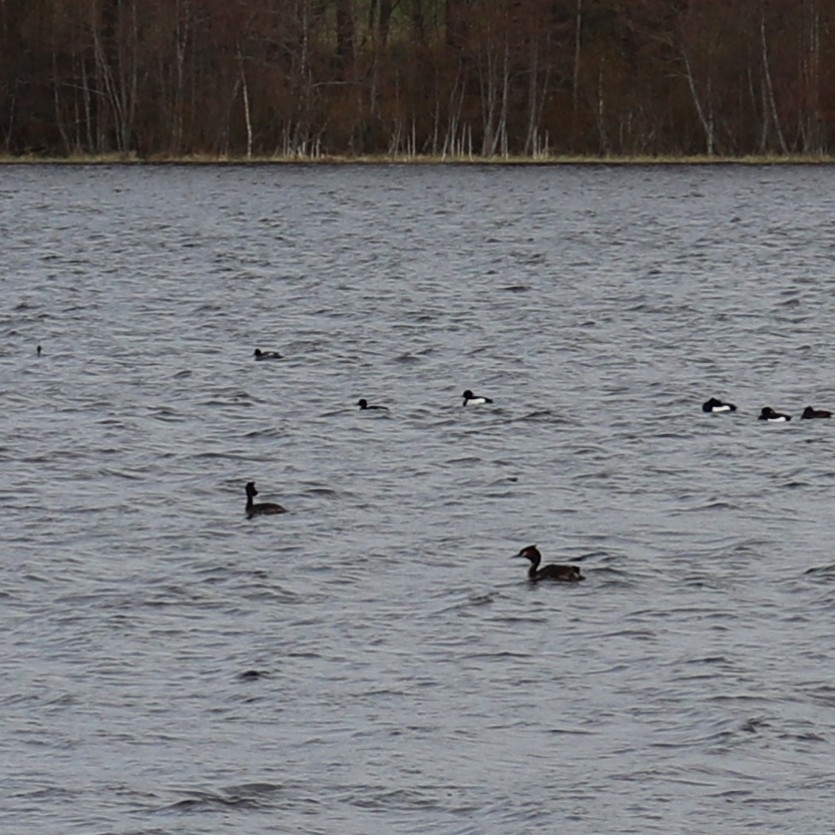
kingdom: Animalia
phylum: Chordata
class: Aves
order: Podicipediformes
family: Podicipedidae
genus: Podiceps
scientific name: Podiceps cristatus
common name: Great crested grebe
